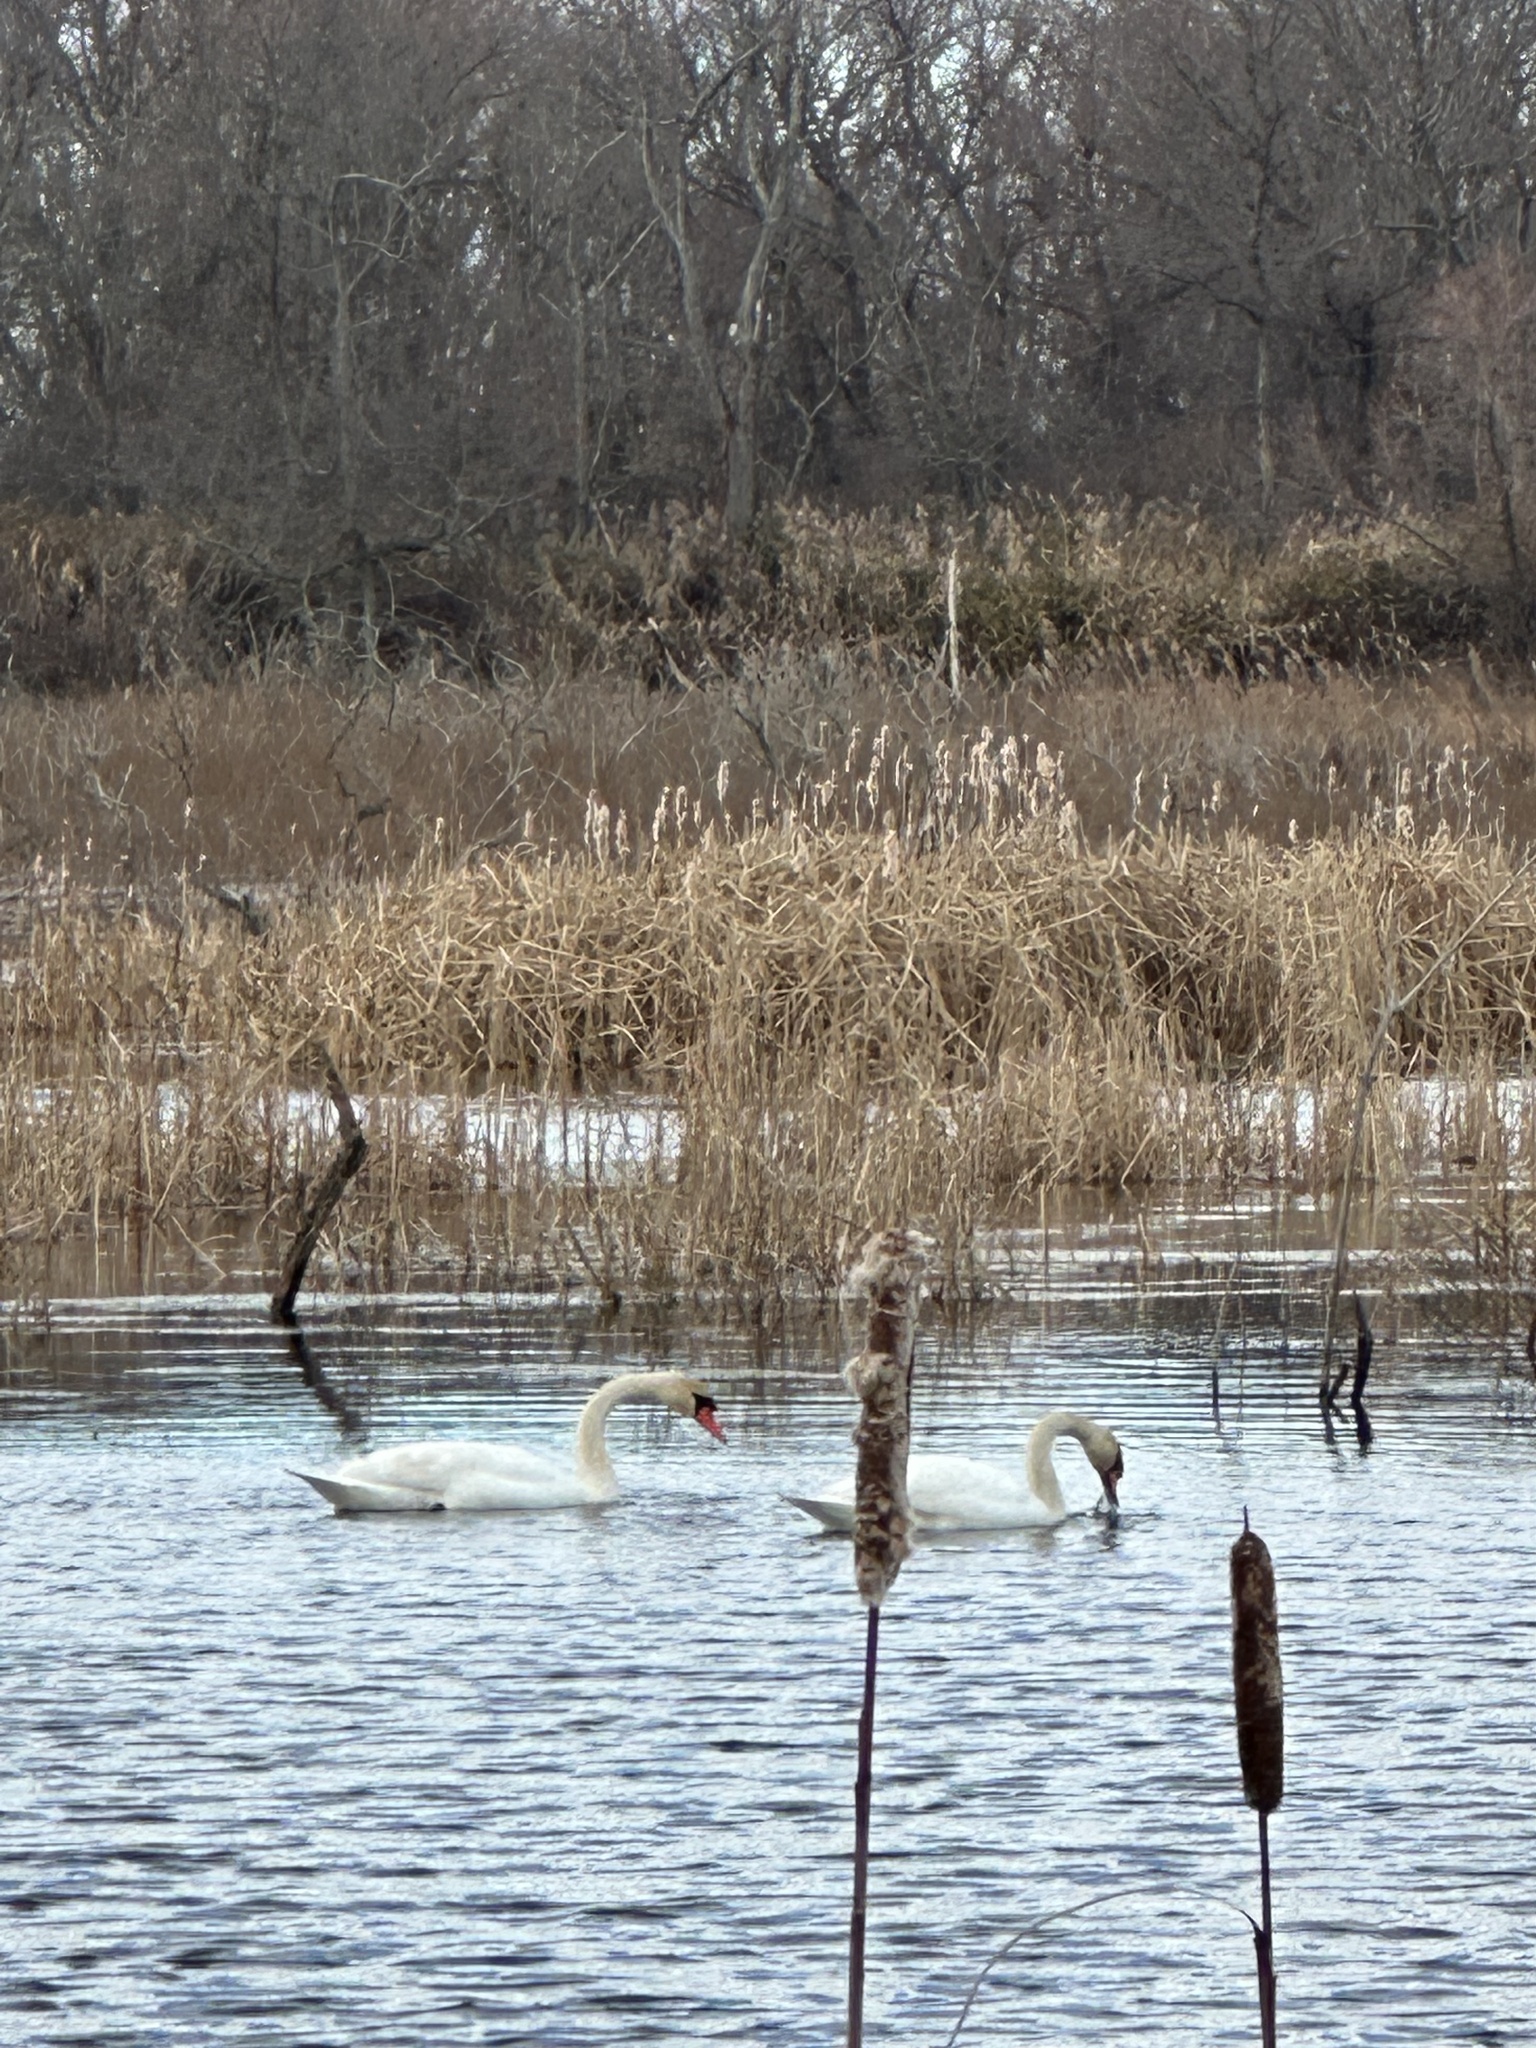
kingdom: Animalia
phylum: Chordata
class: Aves
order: Anseriformes
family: Anatidae
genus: Cygnus
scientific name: Cygnus olor
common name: Mute swan
